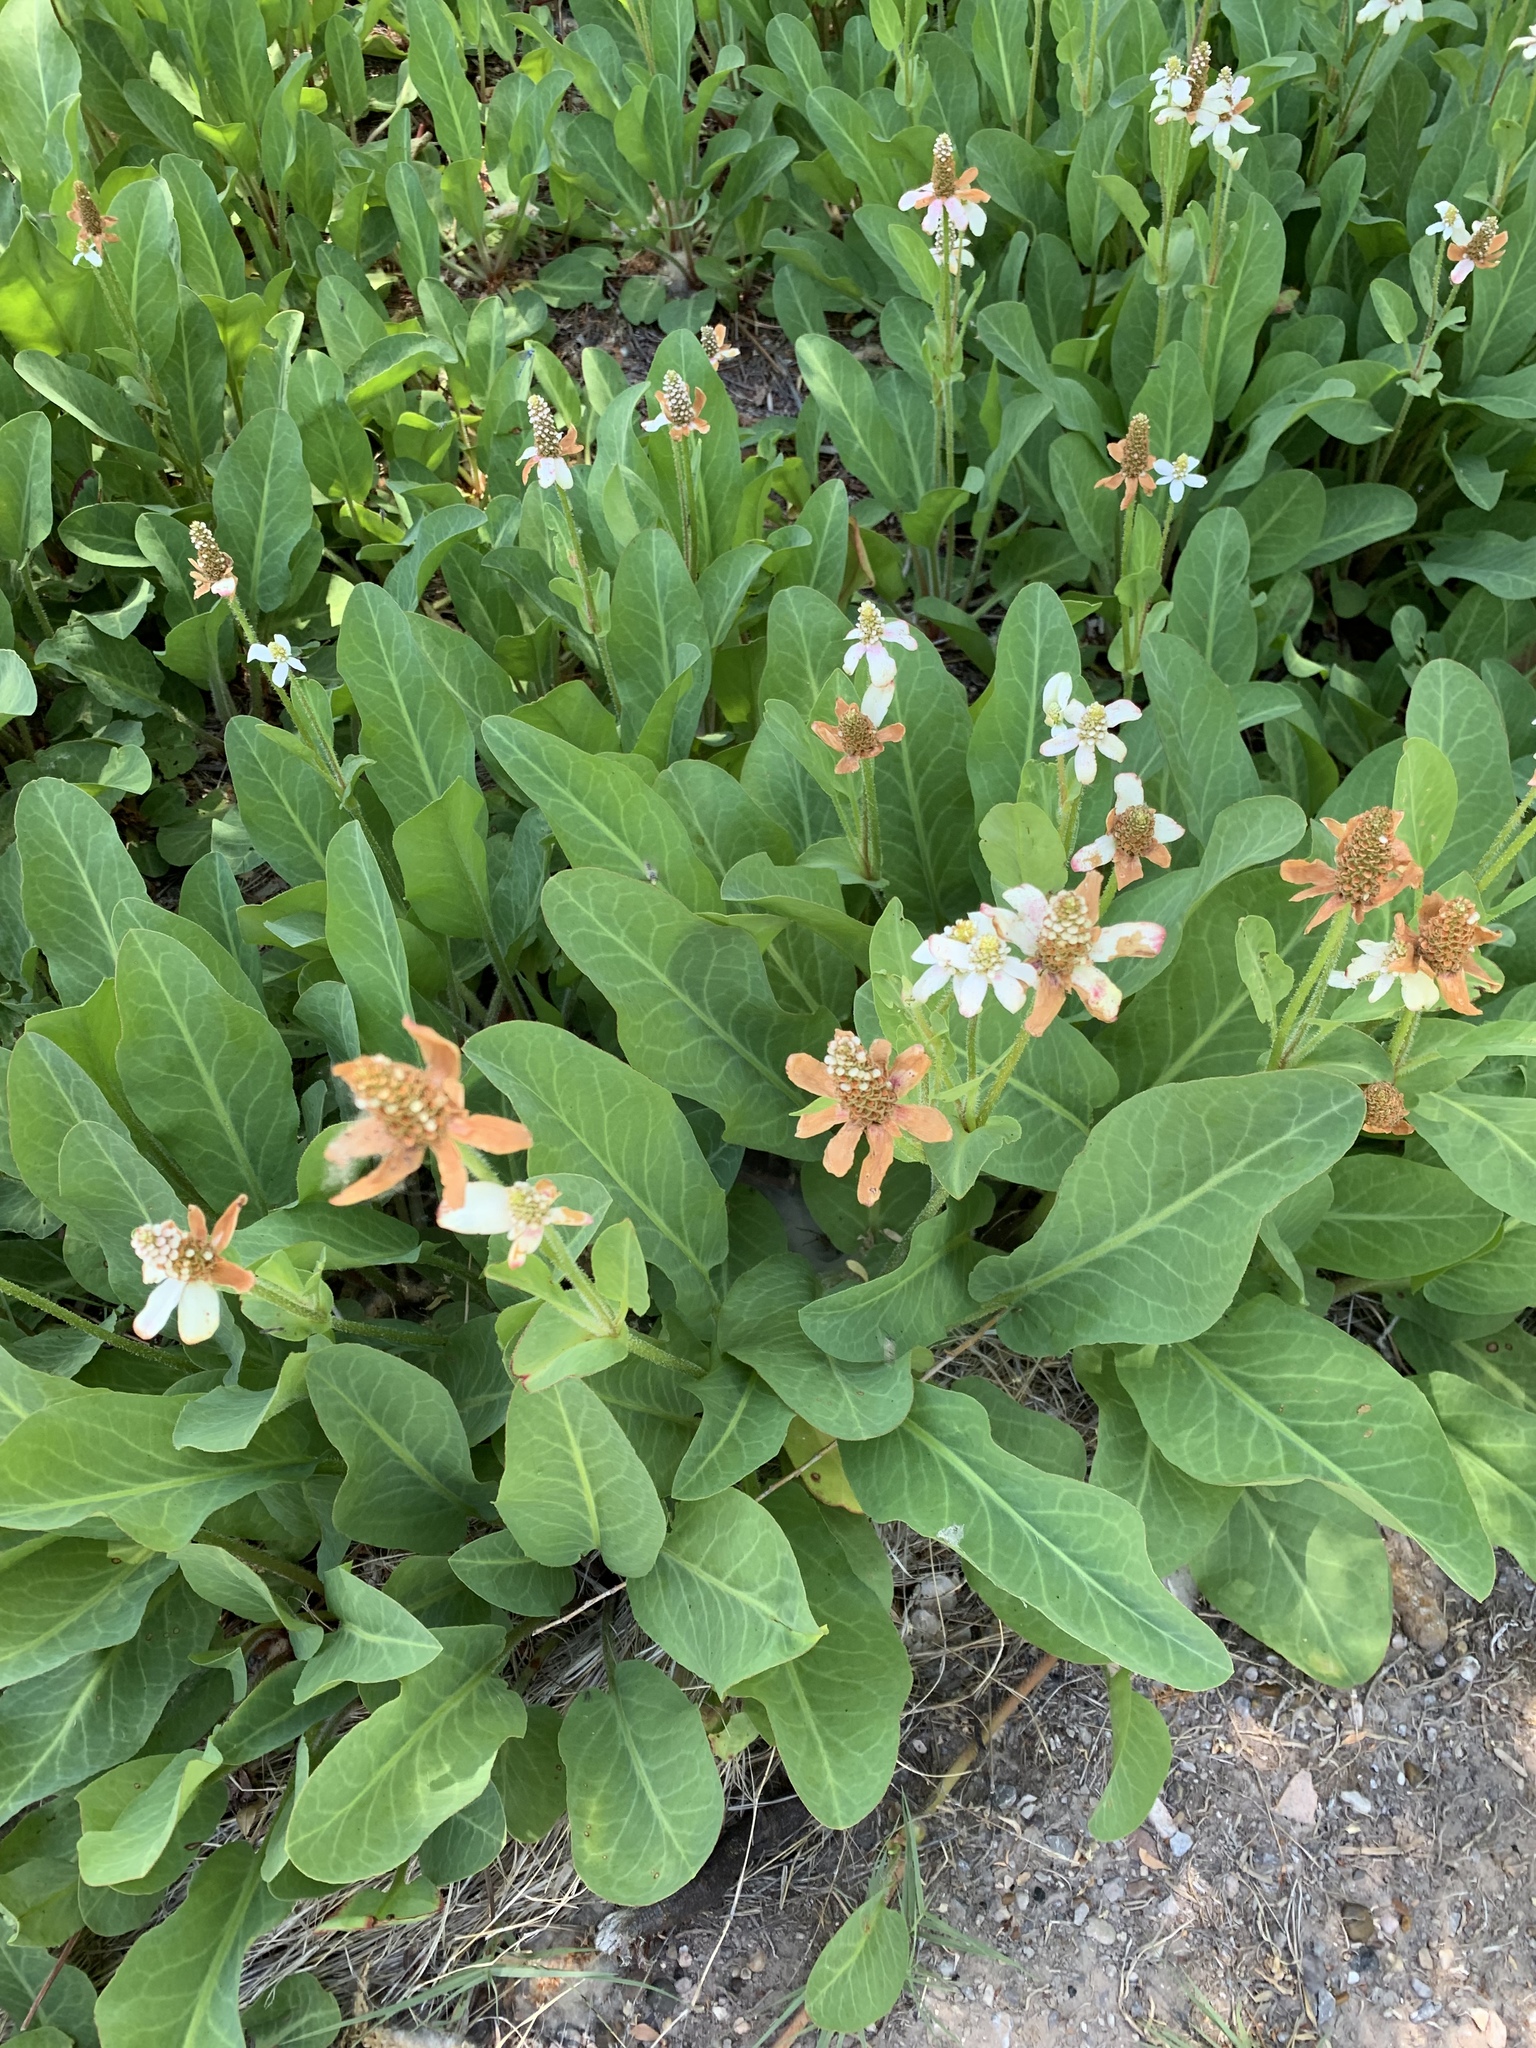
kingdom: Plantae
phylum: Tracheophyta
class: Magnoliopsida
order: Piperales
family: Saururaceae
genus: Anemopsis
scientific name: Anemopsis californica
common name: Apache-beads
